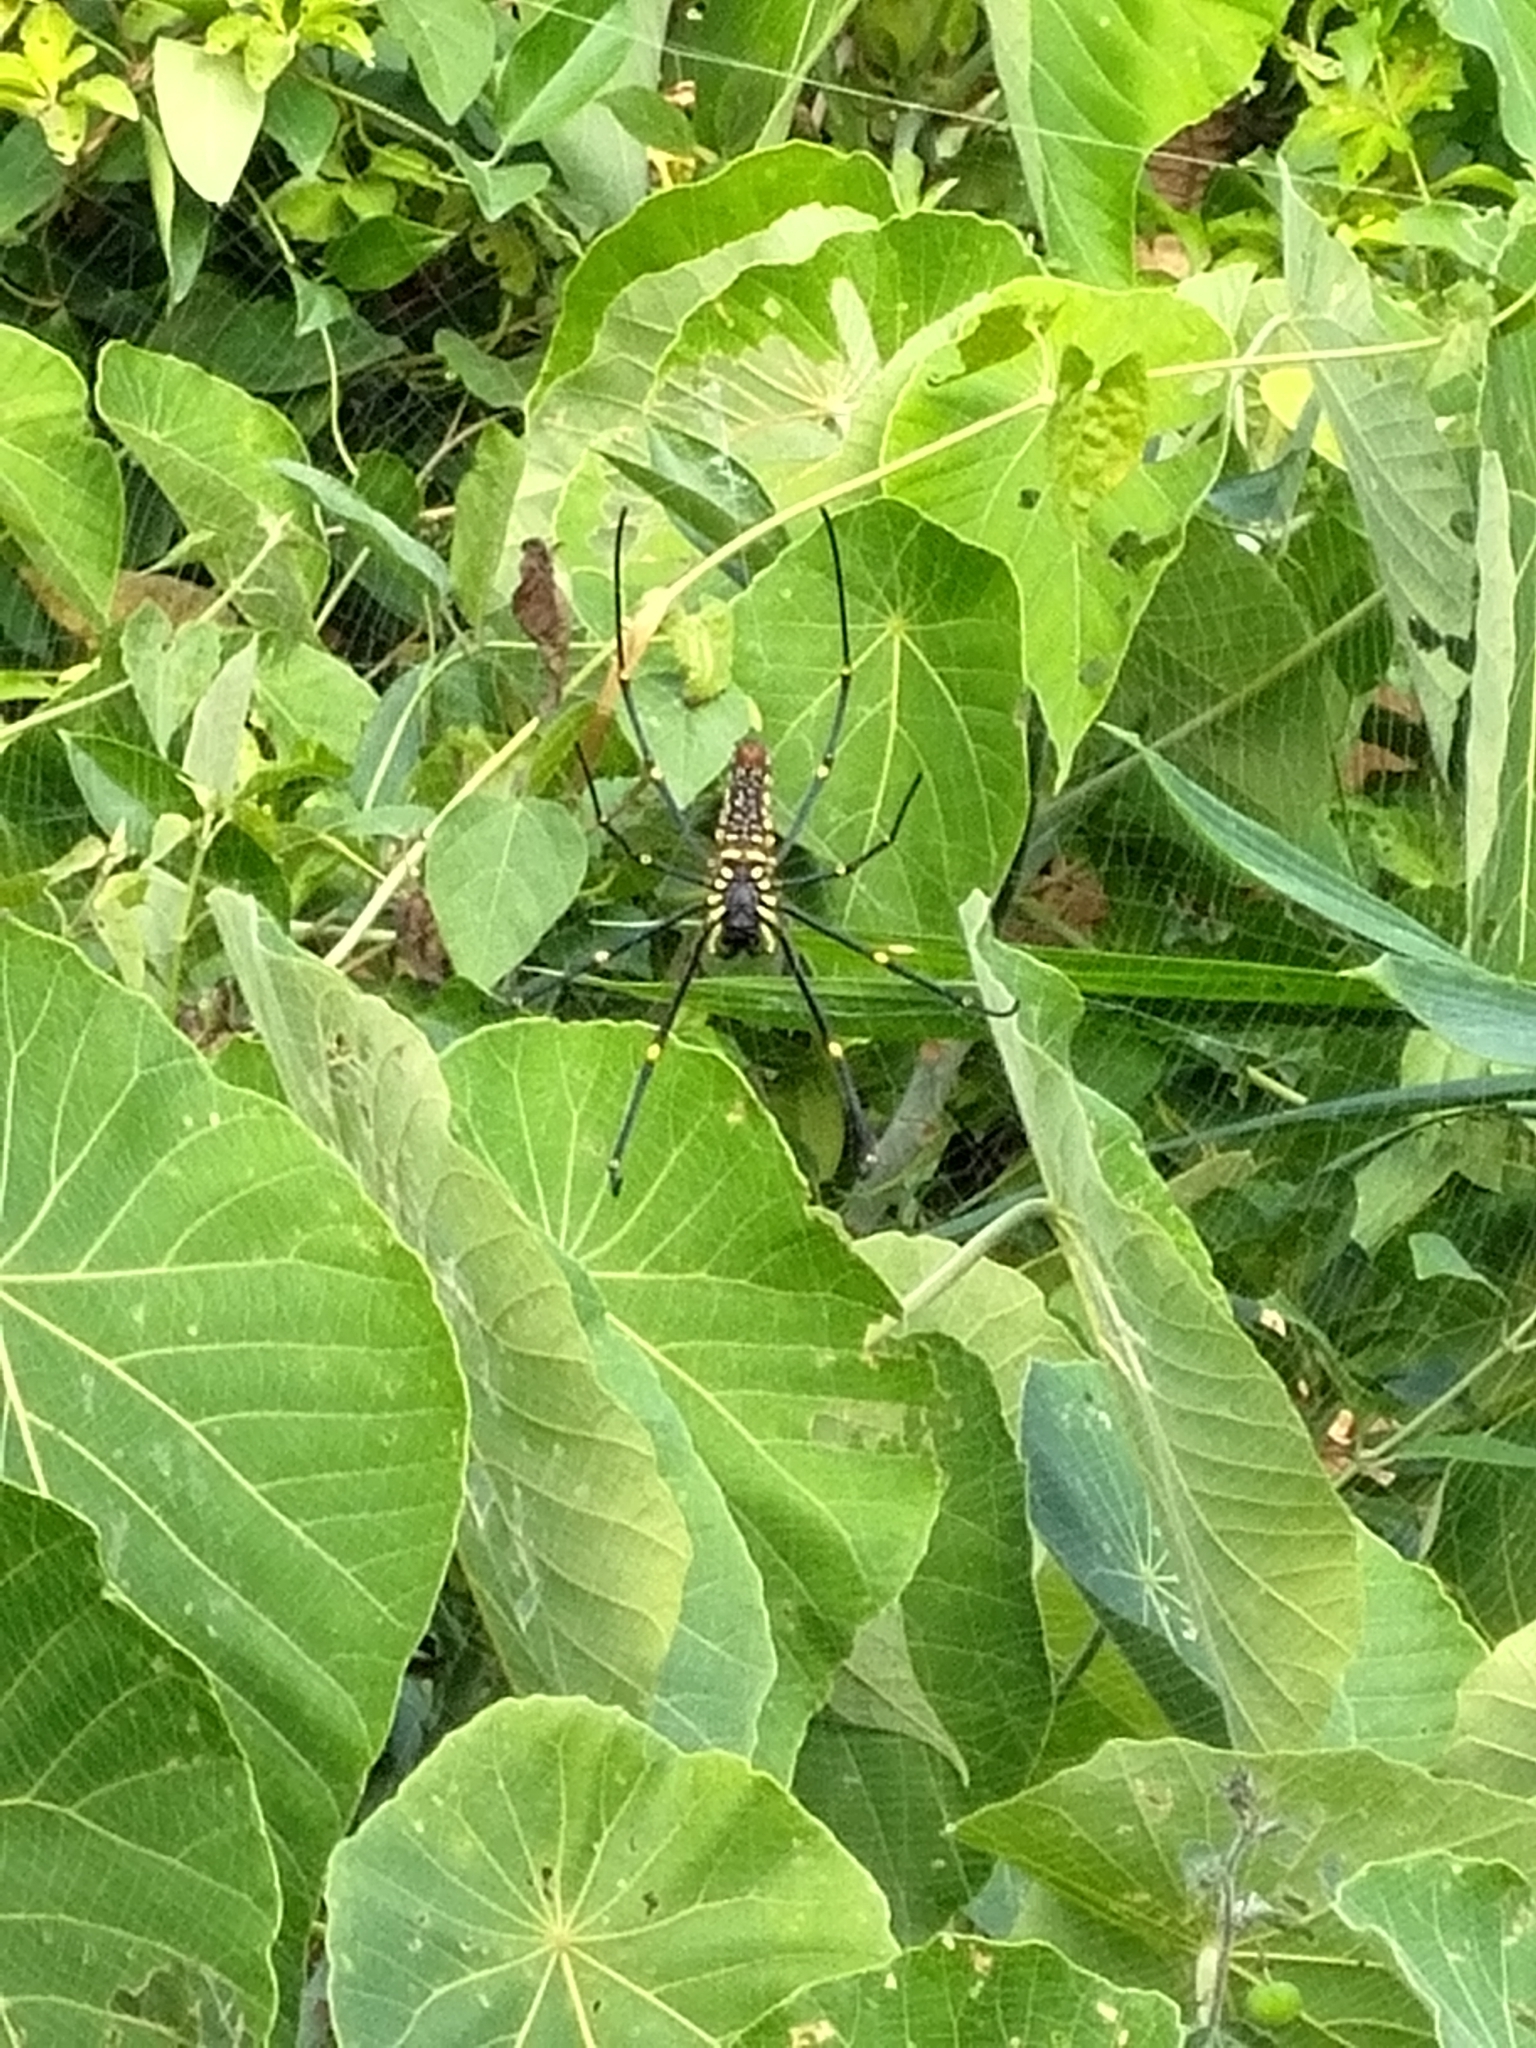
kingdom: Animalia
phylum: Arthropoda
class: Arachnida
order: Araneae
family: Araneidae
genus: Nephila
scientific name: Nephila pilipes
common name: Giant golden orb weaver
